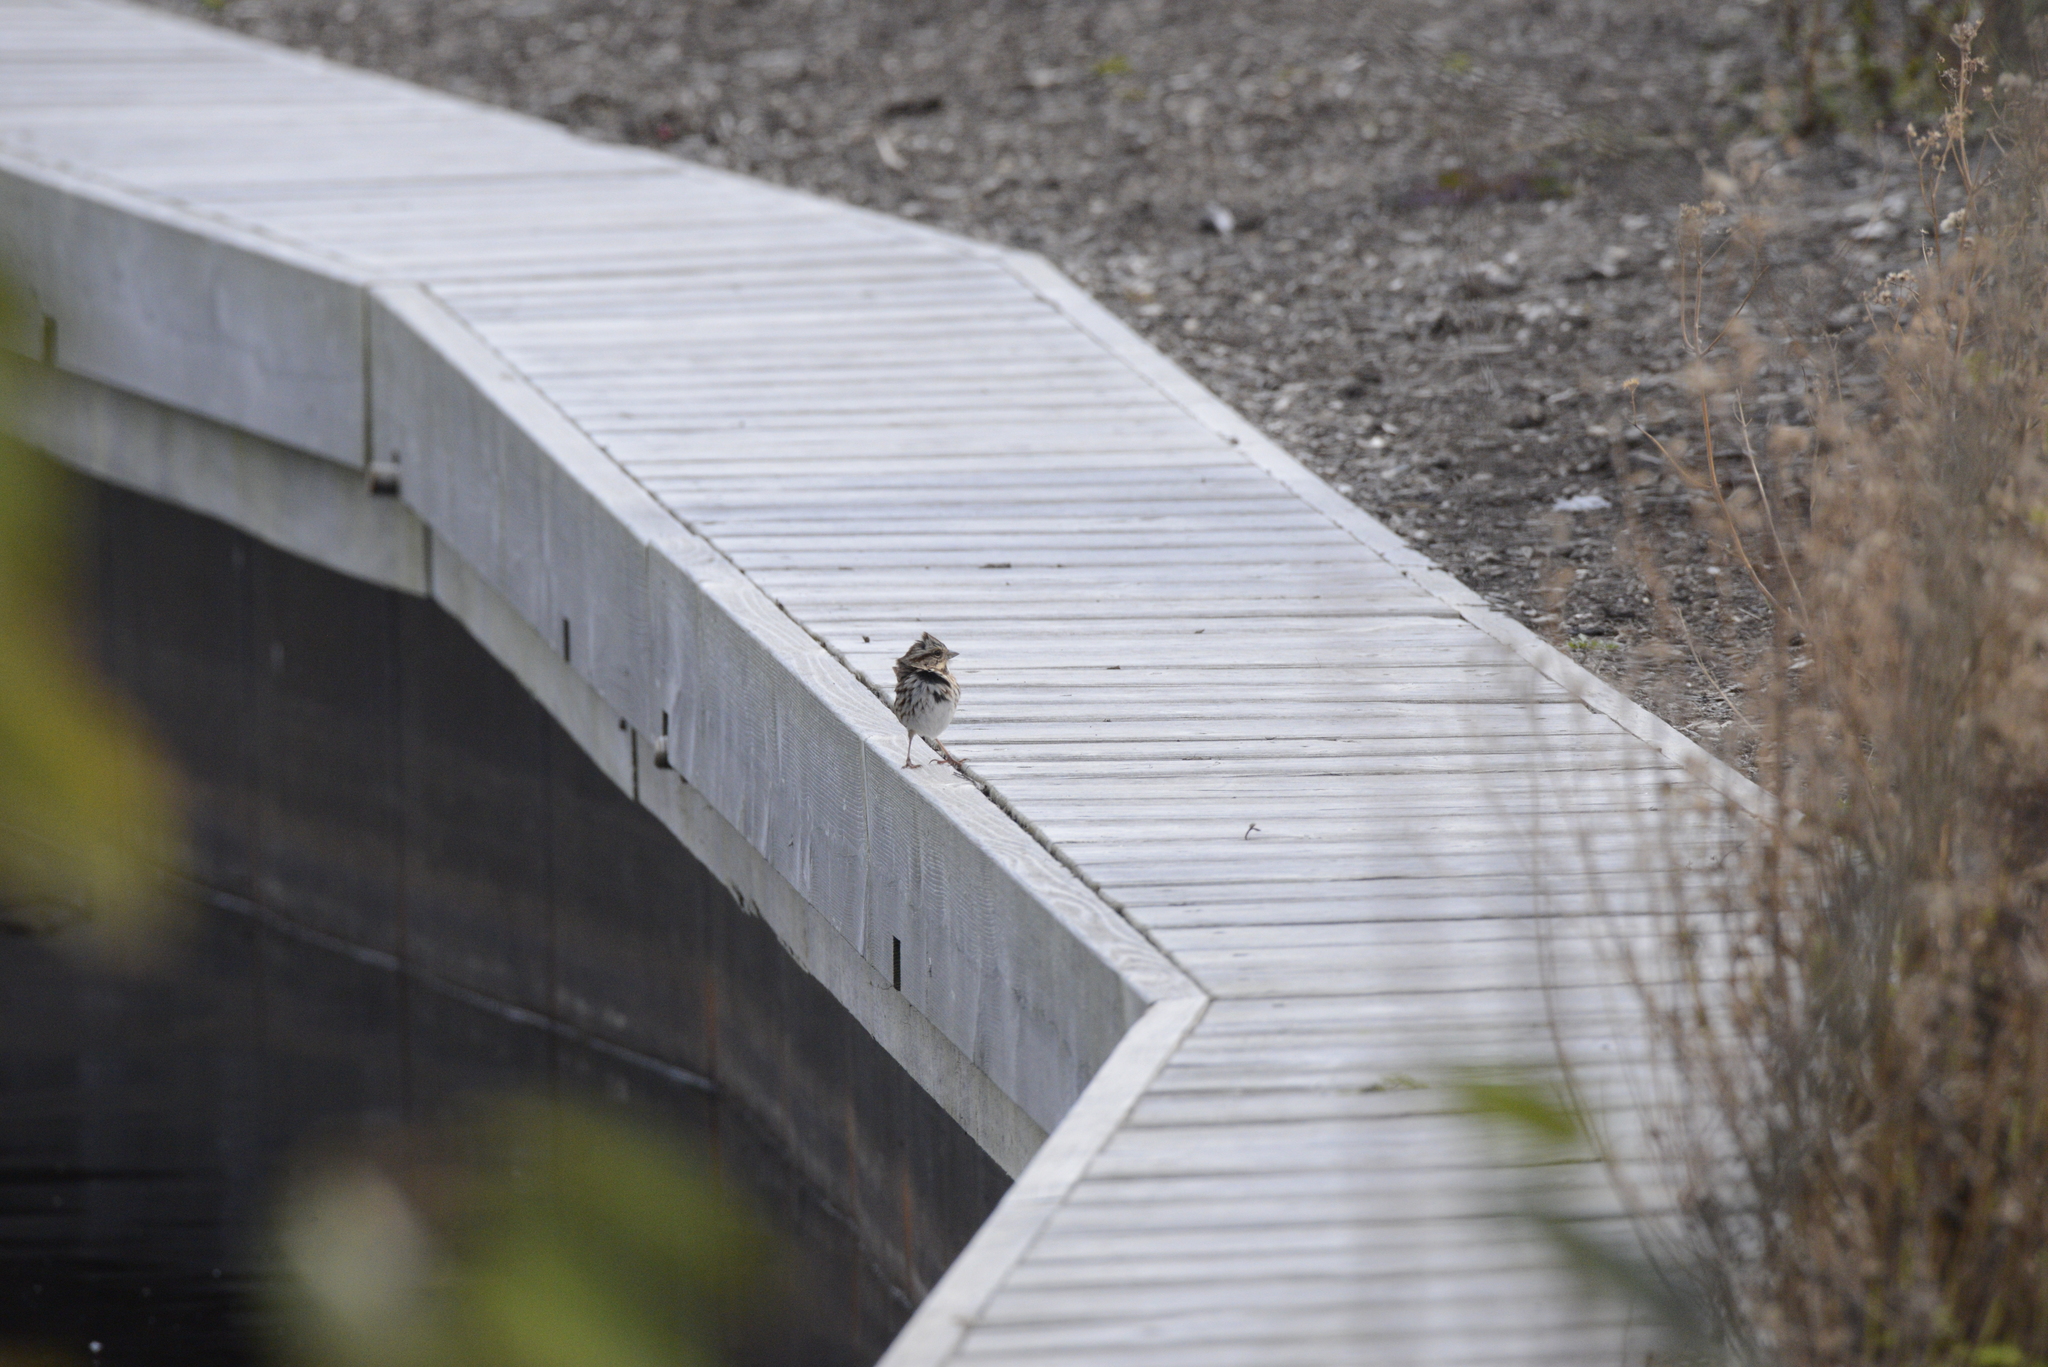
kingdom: Animalia
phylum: Chordata
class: Aves
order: Passeriformes
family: Passerellidae
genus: Melospiza
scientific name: Melospiza melodia
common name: Song sparrow
